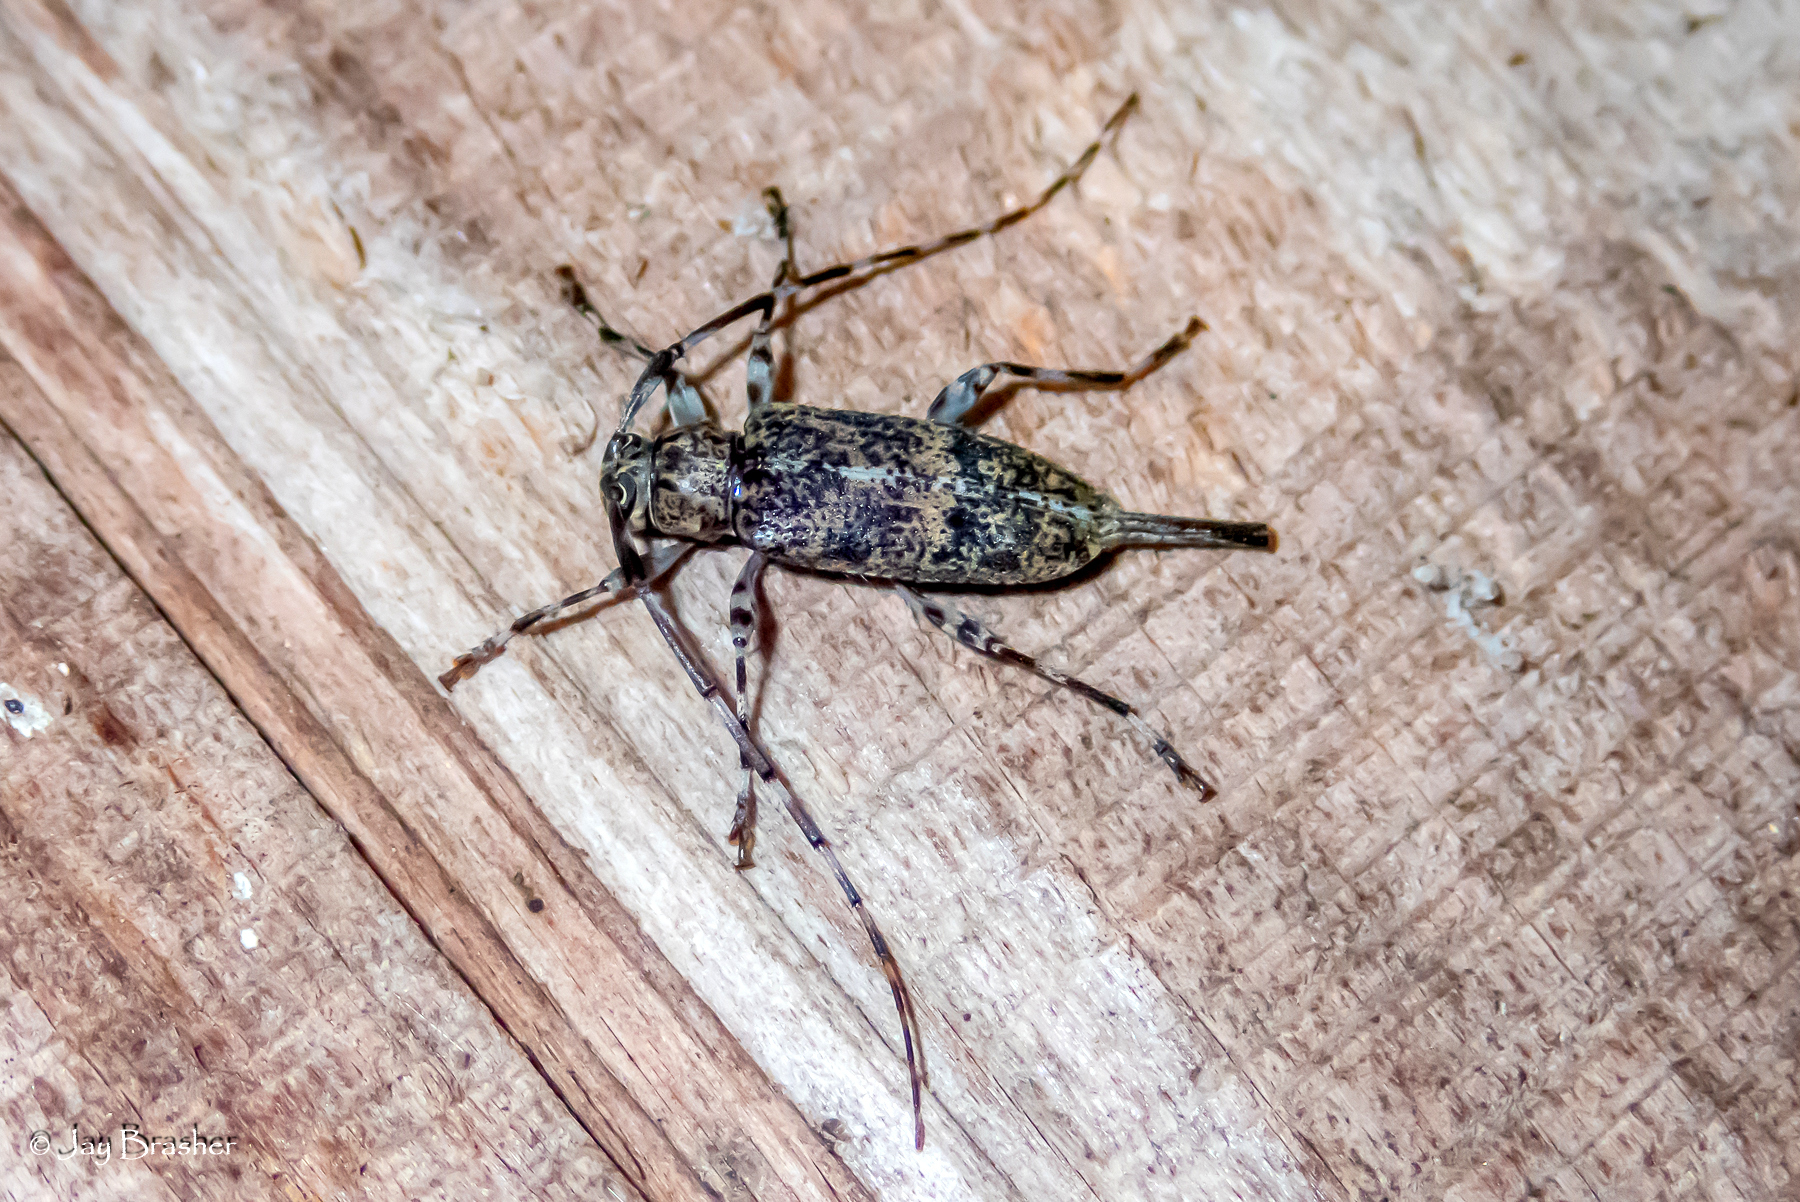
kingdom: Animalia
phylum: Arthropoda
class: Insecta
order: Coleoptera
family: Cerambycidae
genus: Graphisurus
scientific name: Graphisurus fasciatus
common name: Banded graphisurus
